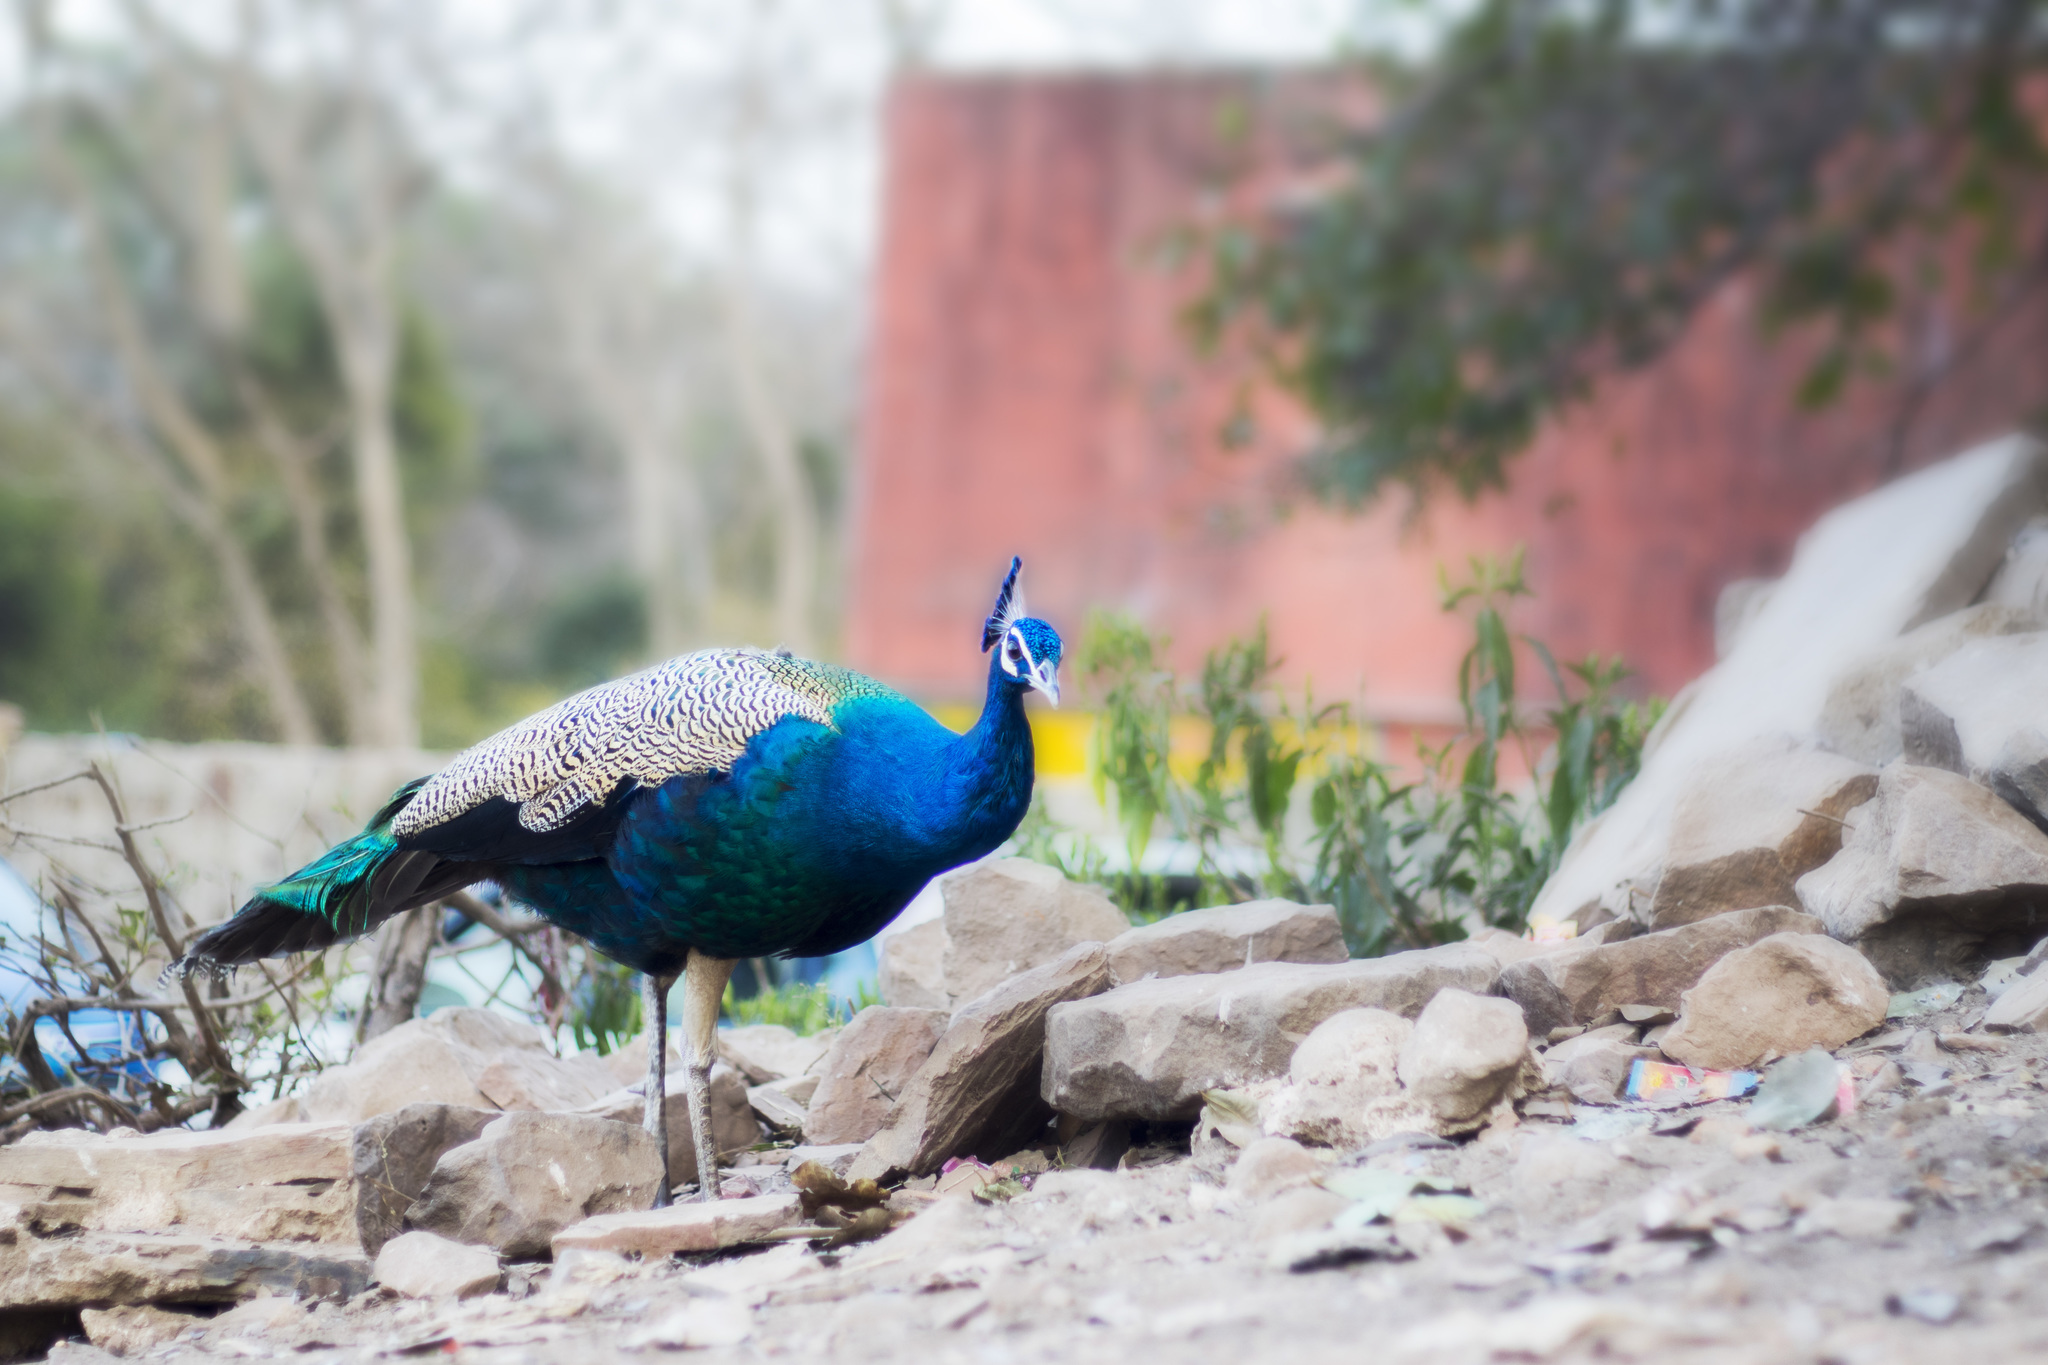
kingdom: Animalia
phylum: Chordata
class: Aves
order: Galliformes
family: Phasianidae
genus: Pavo
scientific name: Pavo cristatus
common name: Indian peafowl
